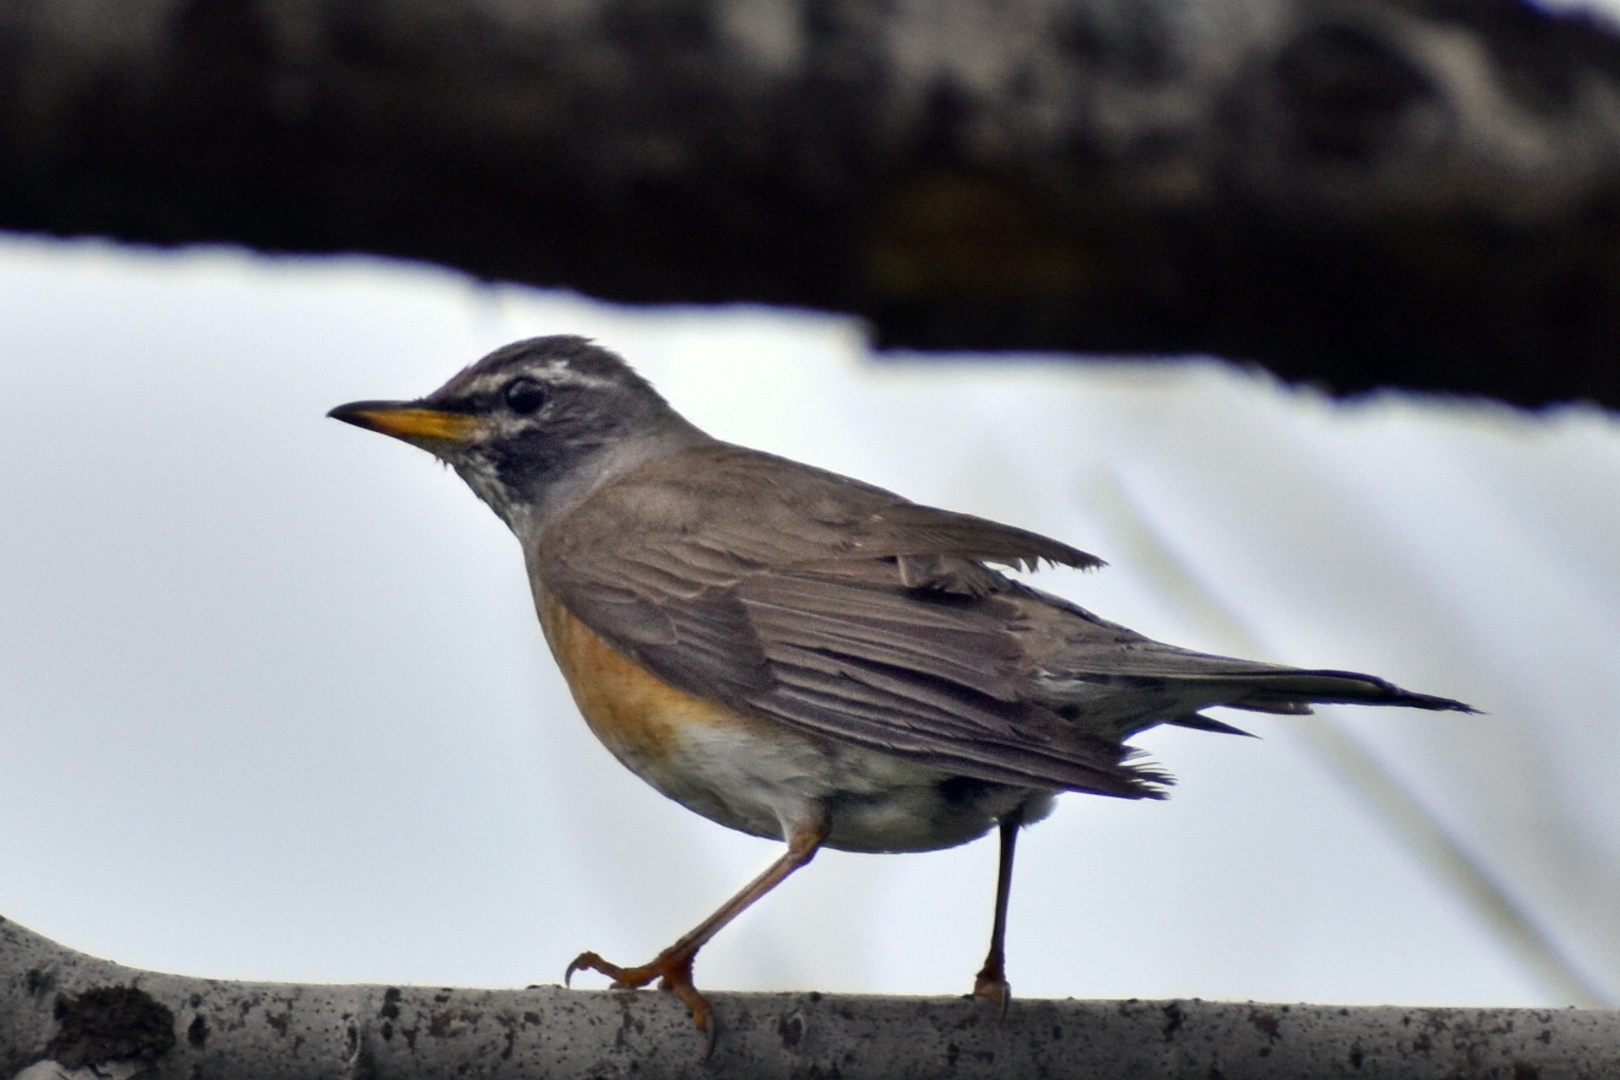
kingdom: Animalia
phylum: Chordata
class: Aves
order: Passeriformes
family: Turdidae
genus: Turdus
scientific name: Turdus obscurus
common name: Eyebrowed thrush
